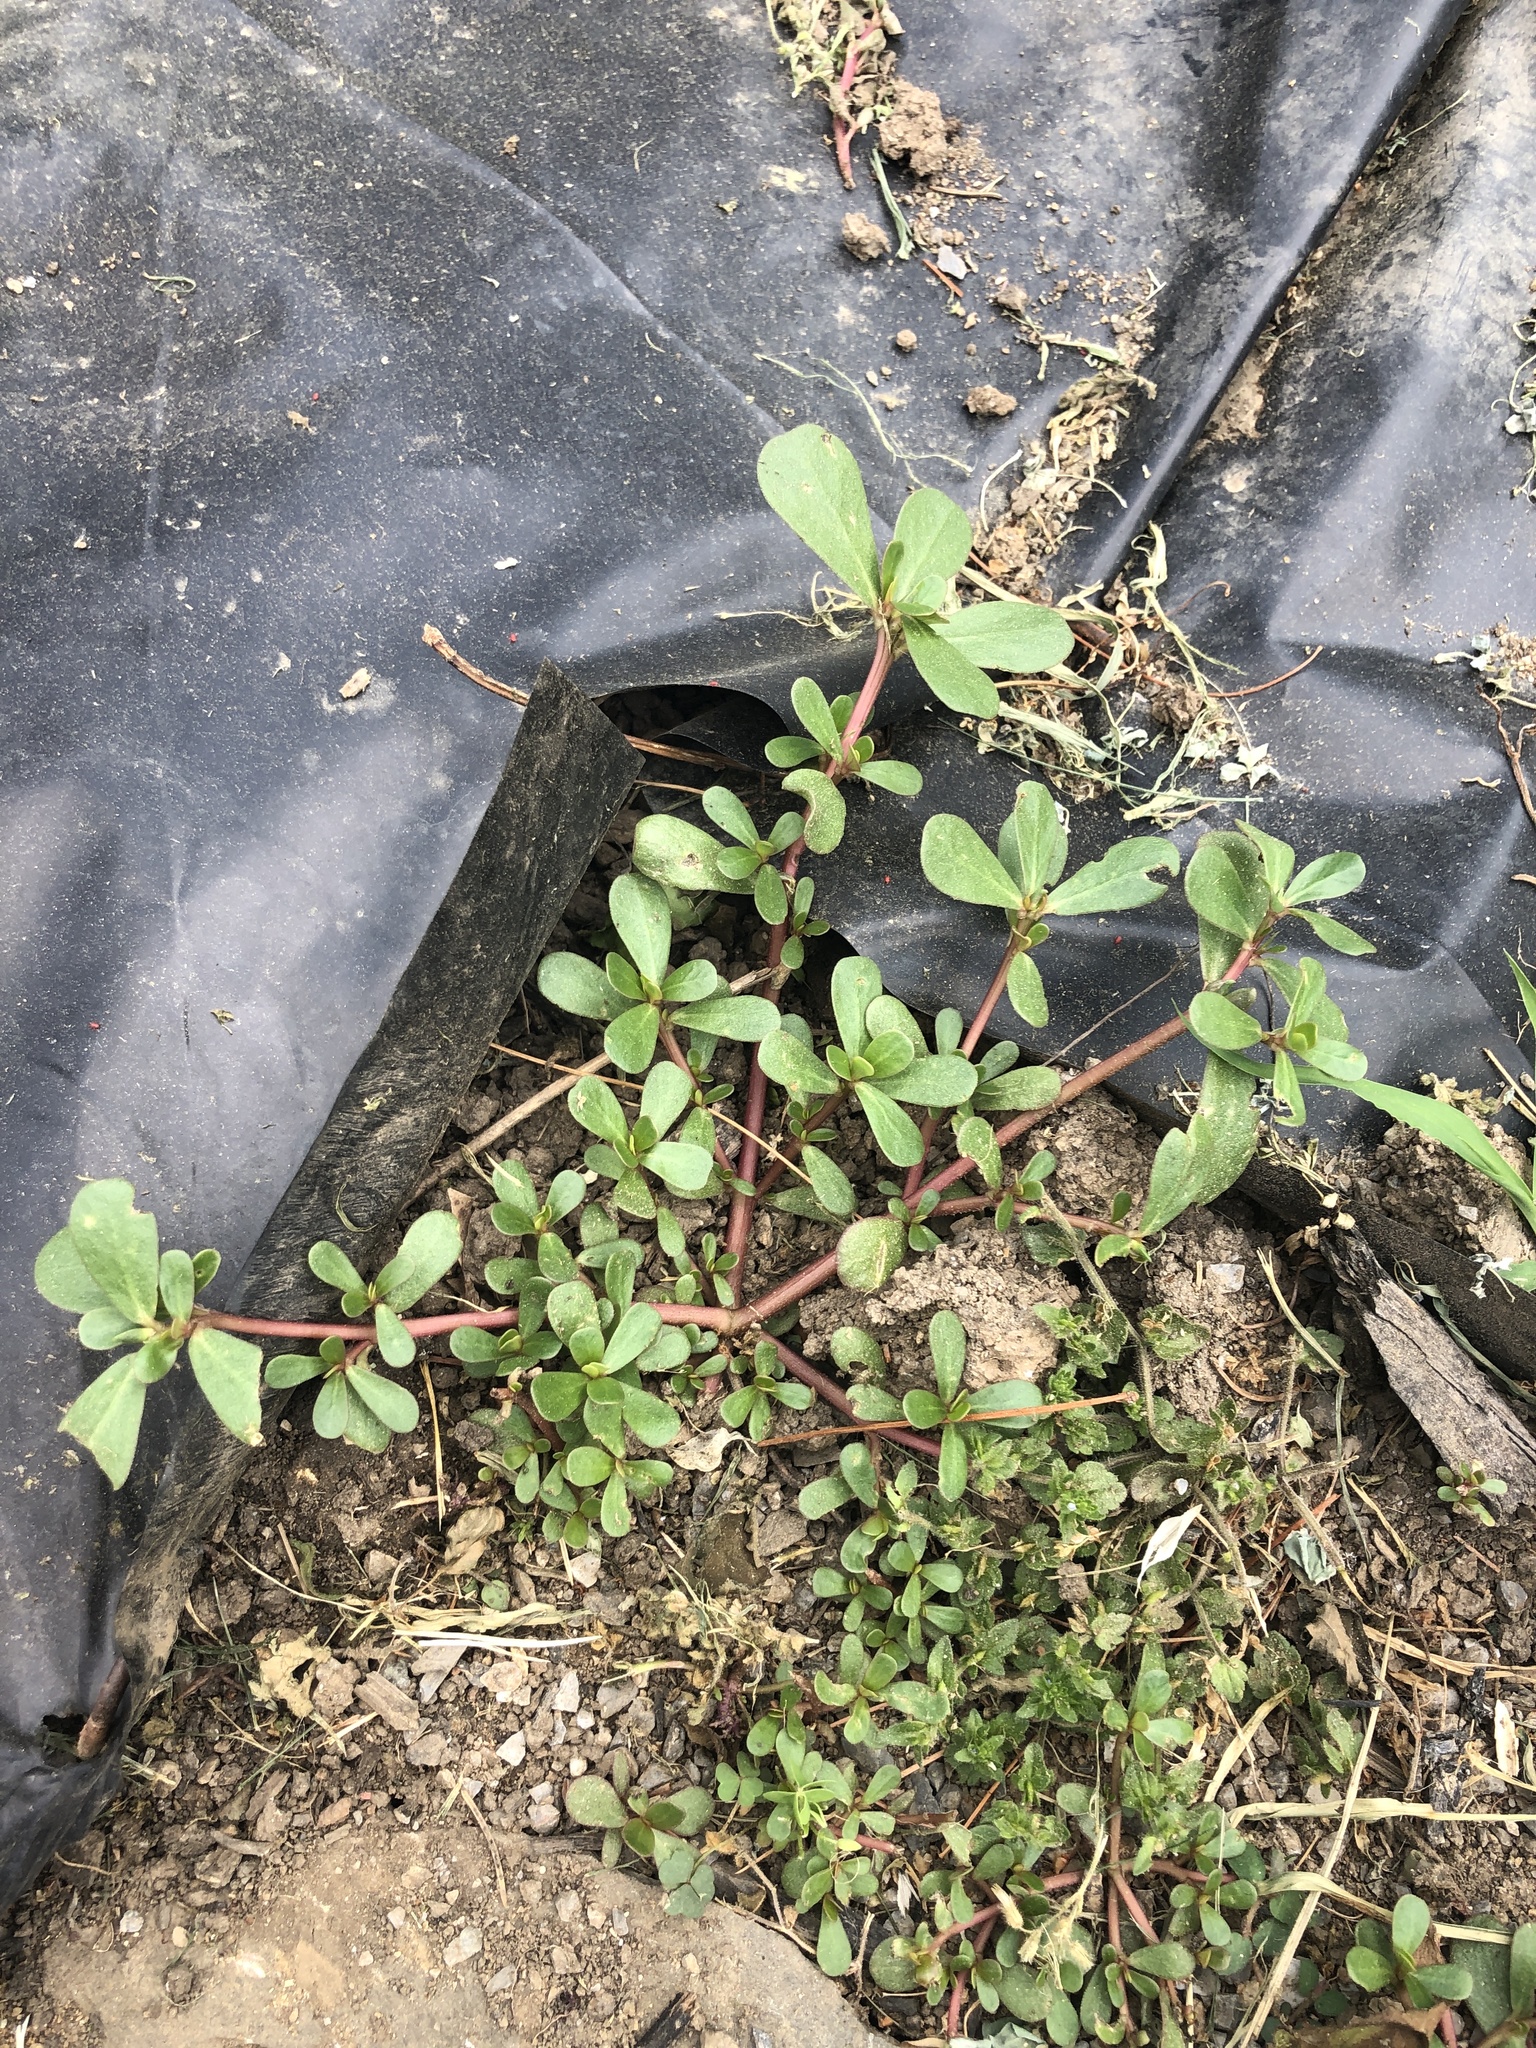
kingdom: Plantae
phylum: Tracheophyta
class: Magnoliopsida
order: Caryophyllales
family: Portulacaceae
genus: Portulaca
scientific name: Portulaca oleracea
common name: Common purslane
